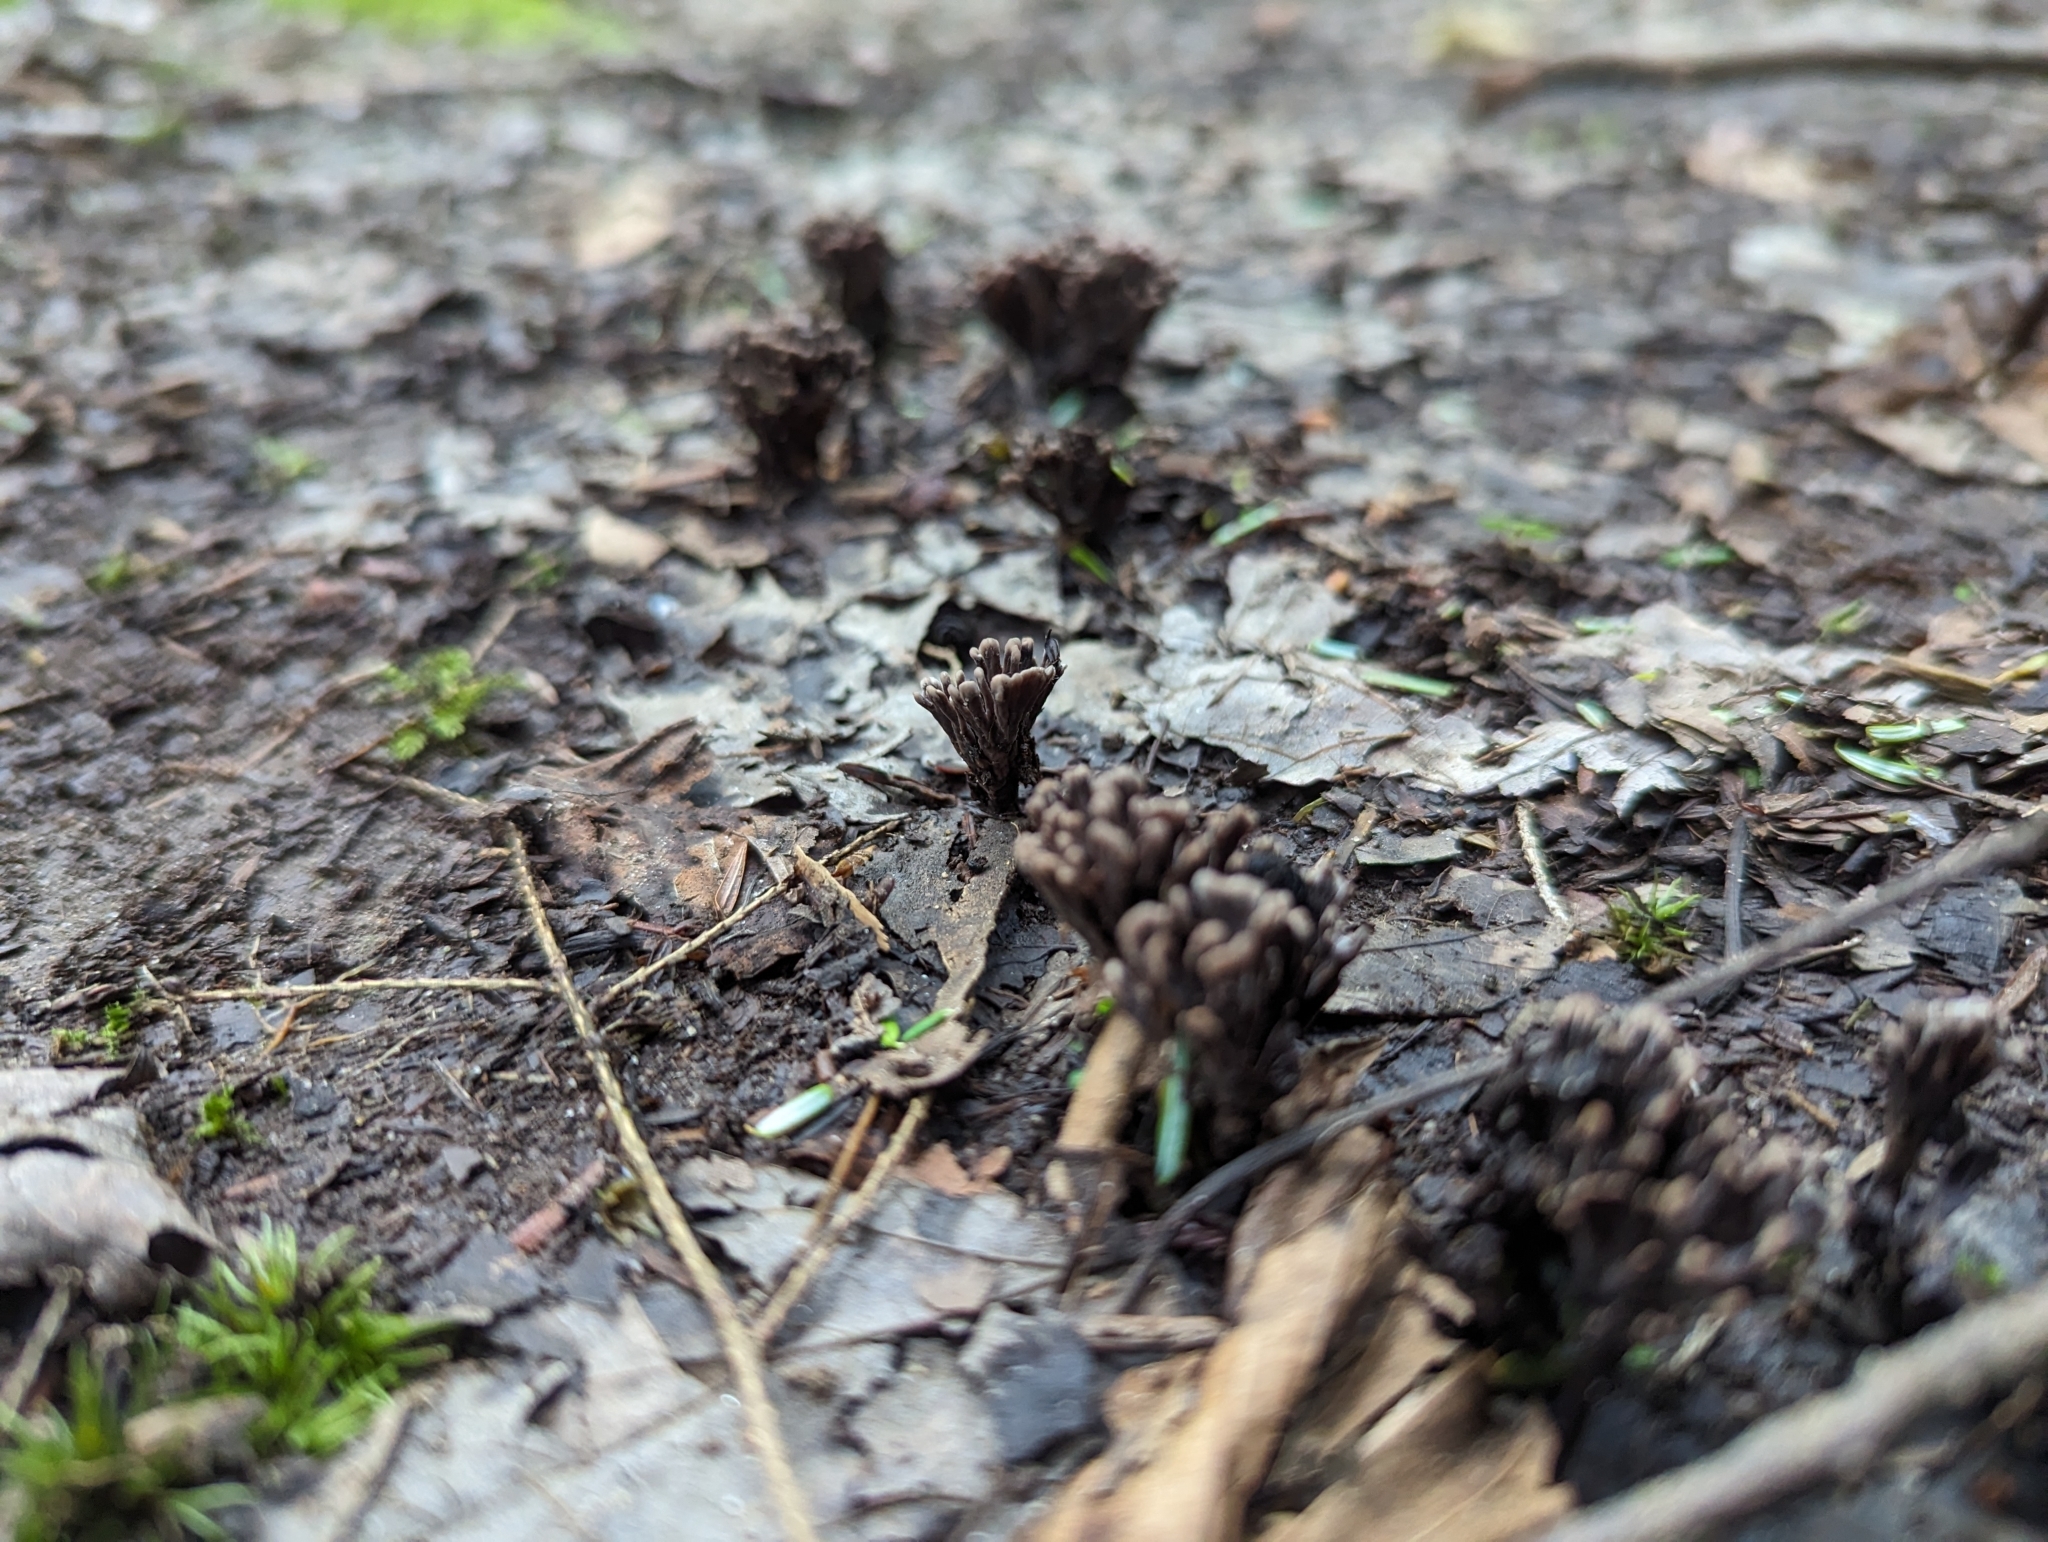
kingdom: Fungi
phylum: Basidiomycota
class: Agaricomycetes
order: Thelephorales
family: Thelephoraceae
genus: Thelephora
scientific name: Thelephora palmata
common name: Stinking earthfan
